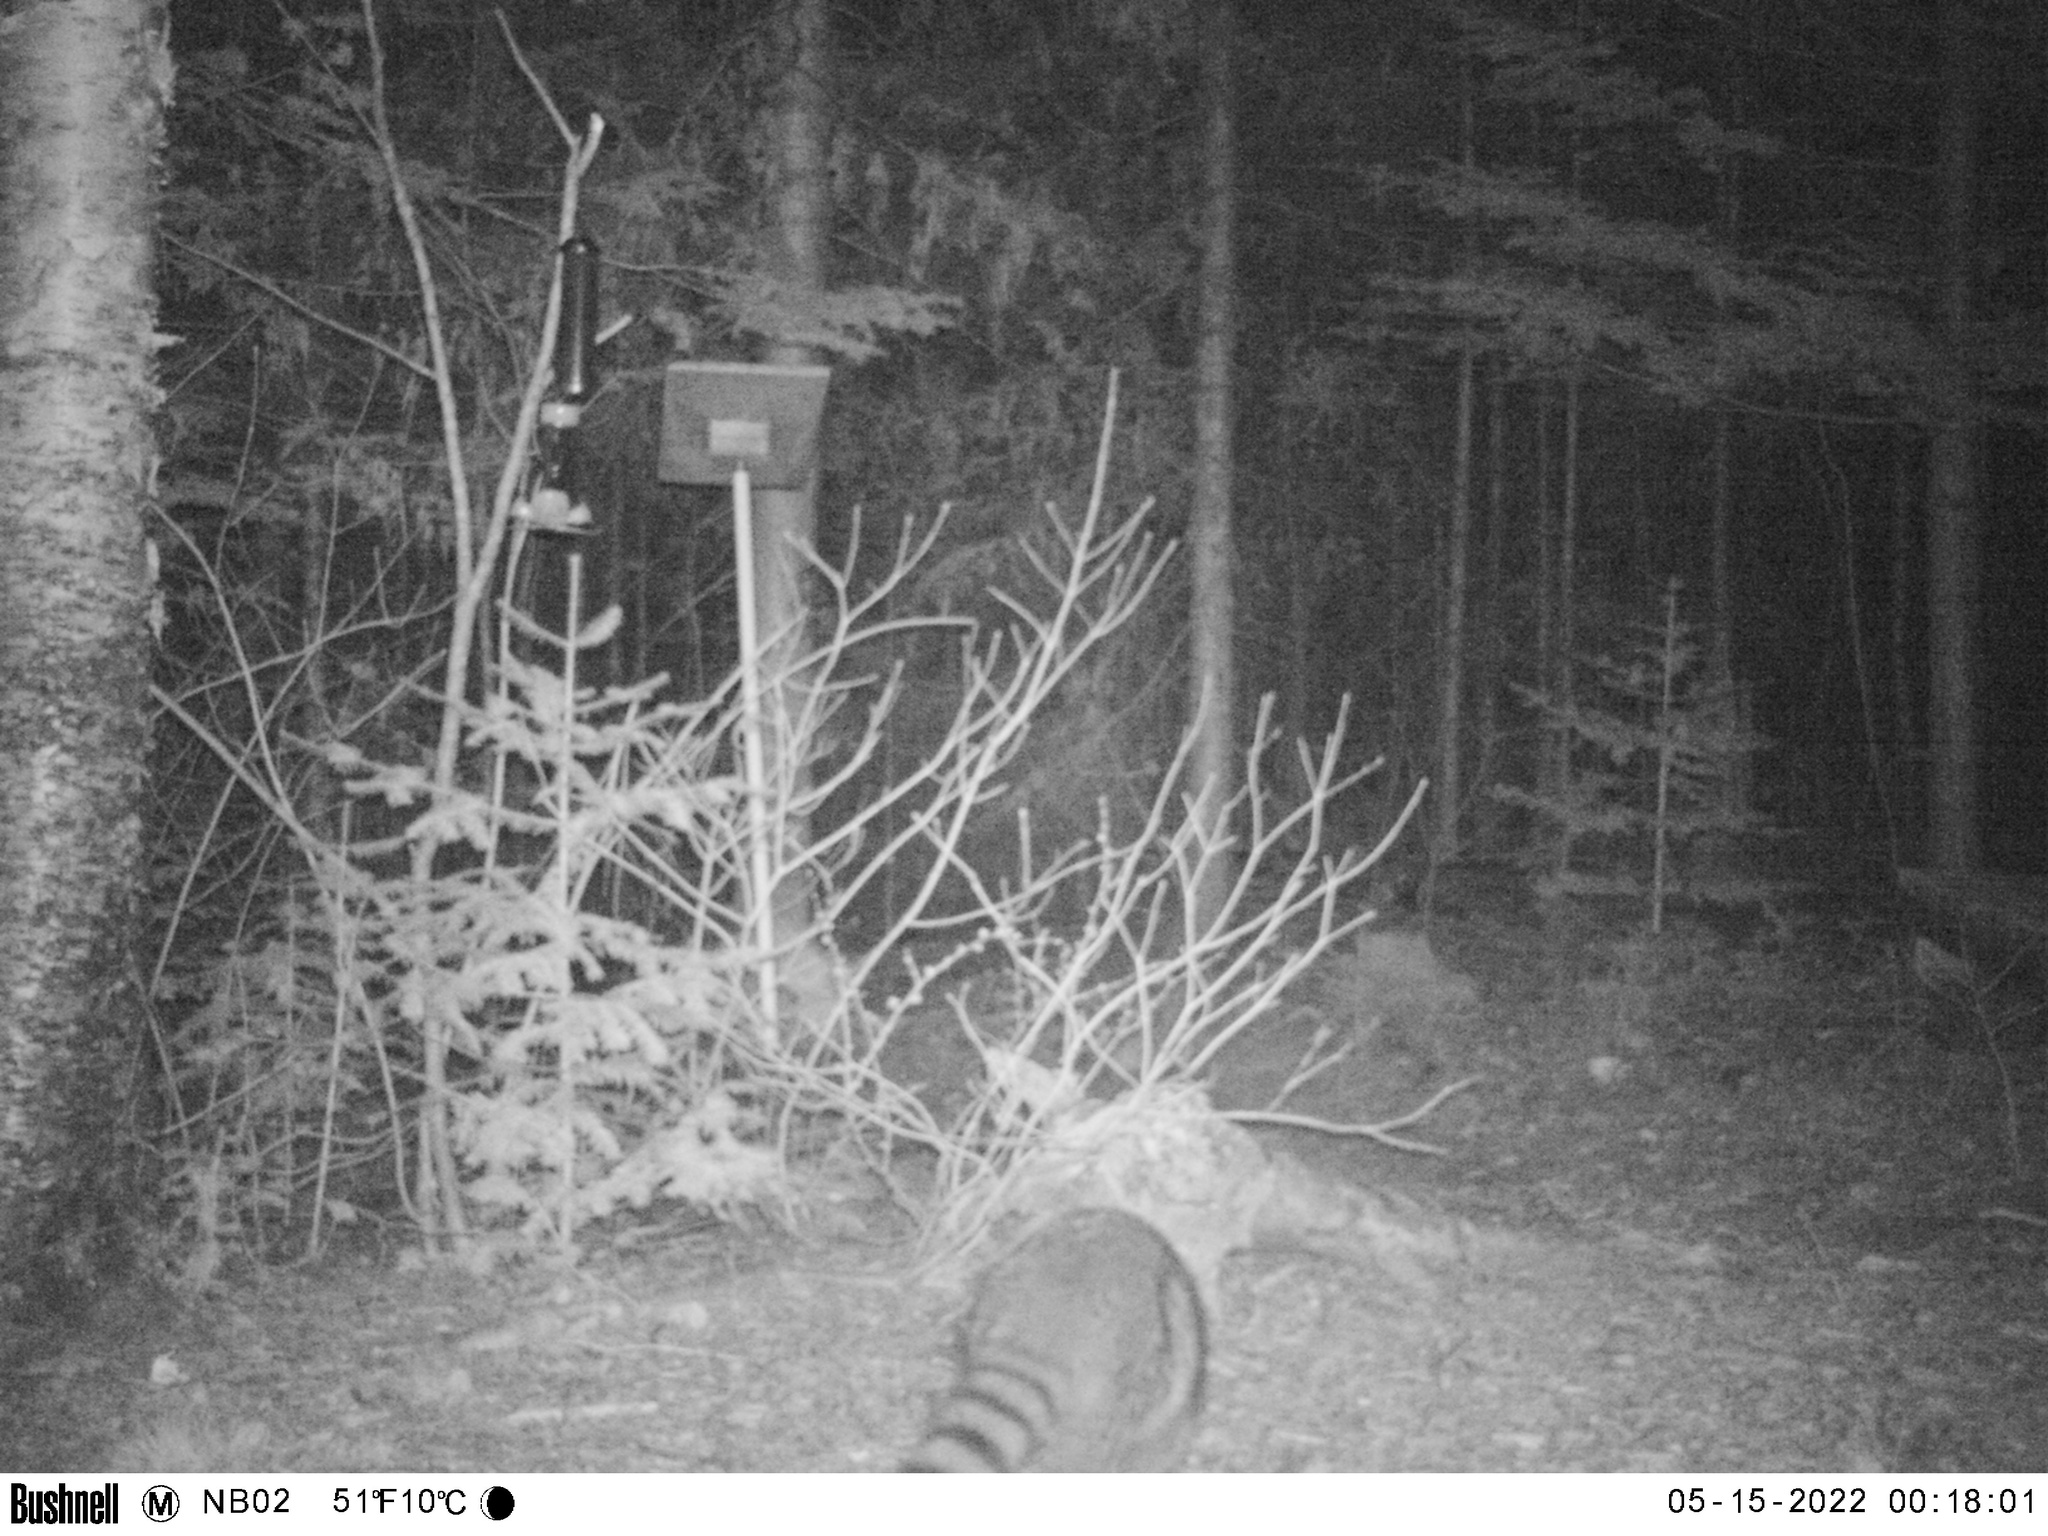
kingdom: Animalia
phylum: Chordata
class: Mammalia
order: Carnivora
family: Procyonidae
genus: Procyon
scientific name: Procyon lotor
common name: Raccoon
